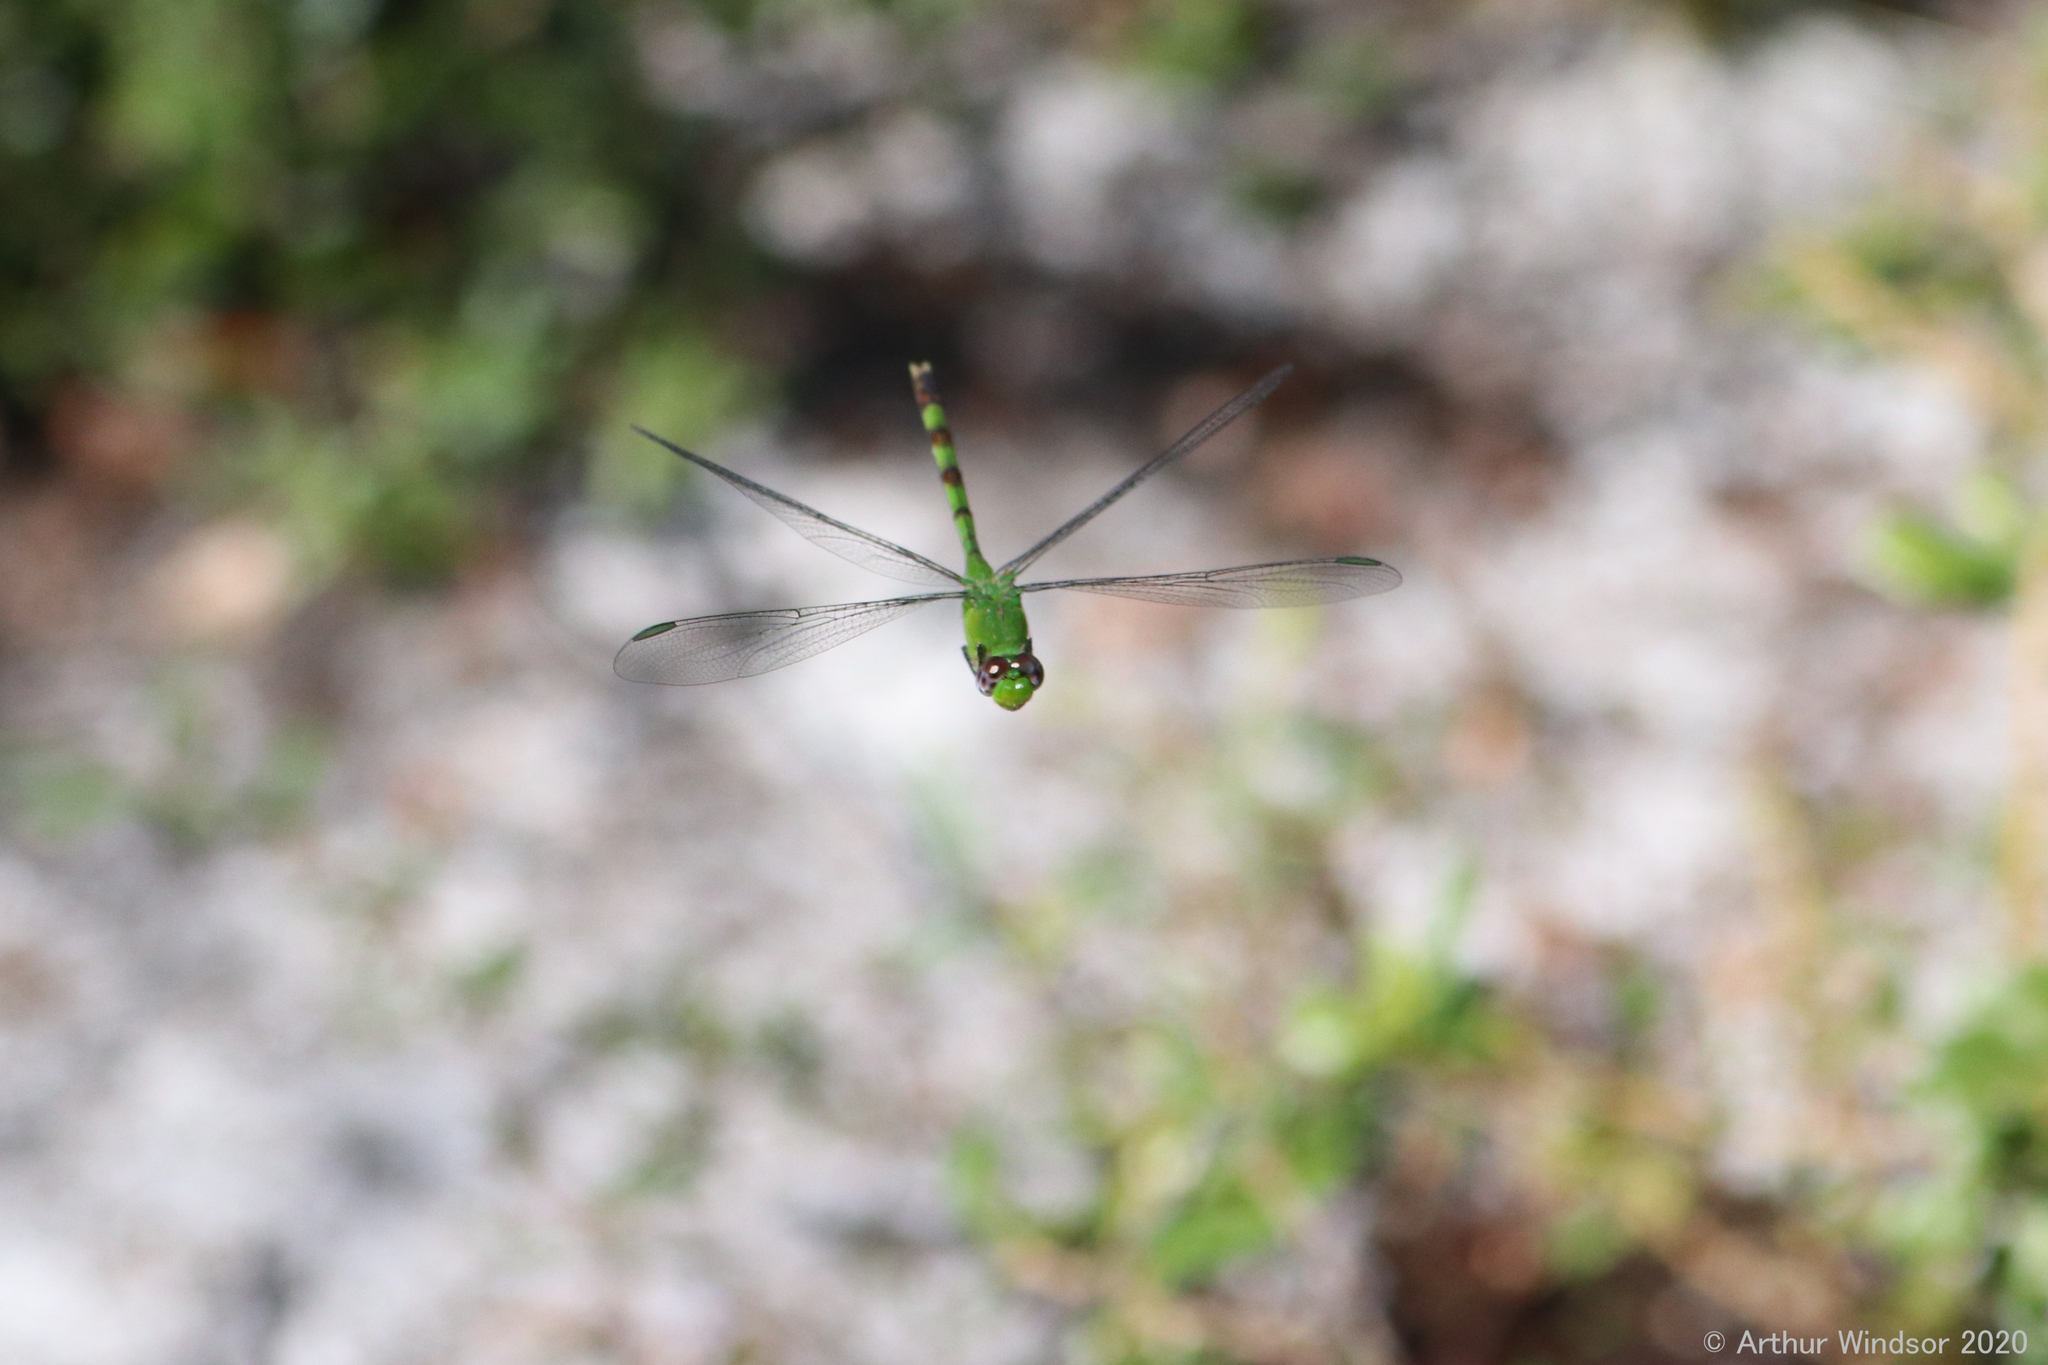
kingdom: Animalia
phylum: Arthropoda
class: Insecta
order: Odonata
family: Libellulidae
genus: Erythemis
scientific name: Erythemis vesiculosa
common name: Great pondhawk
